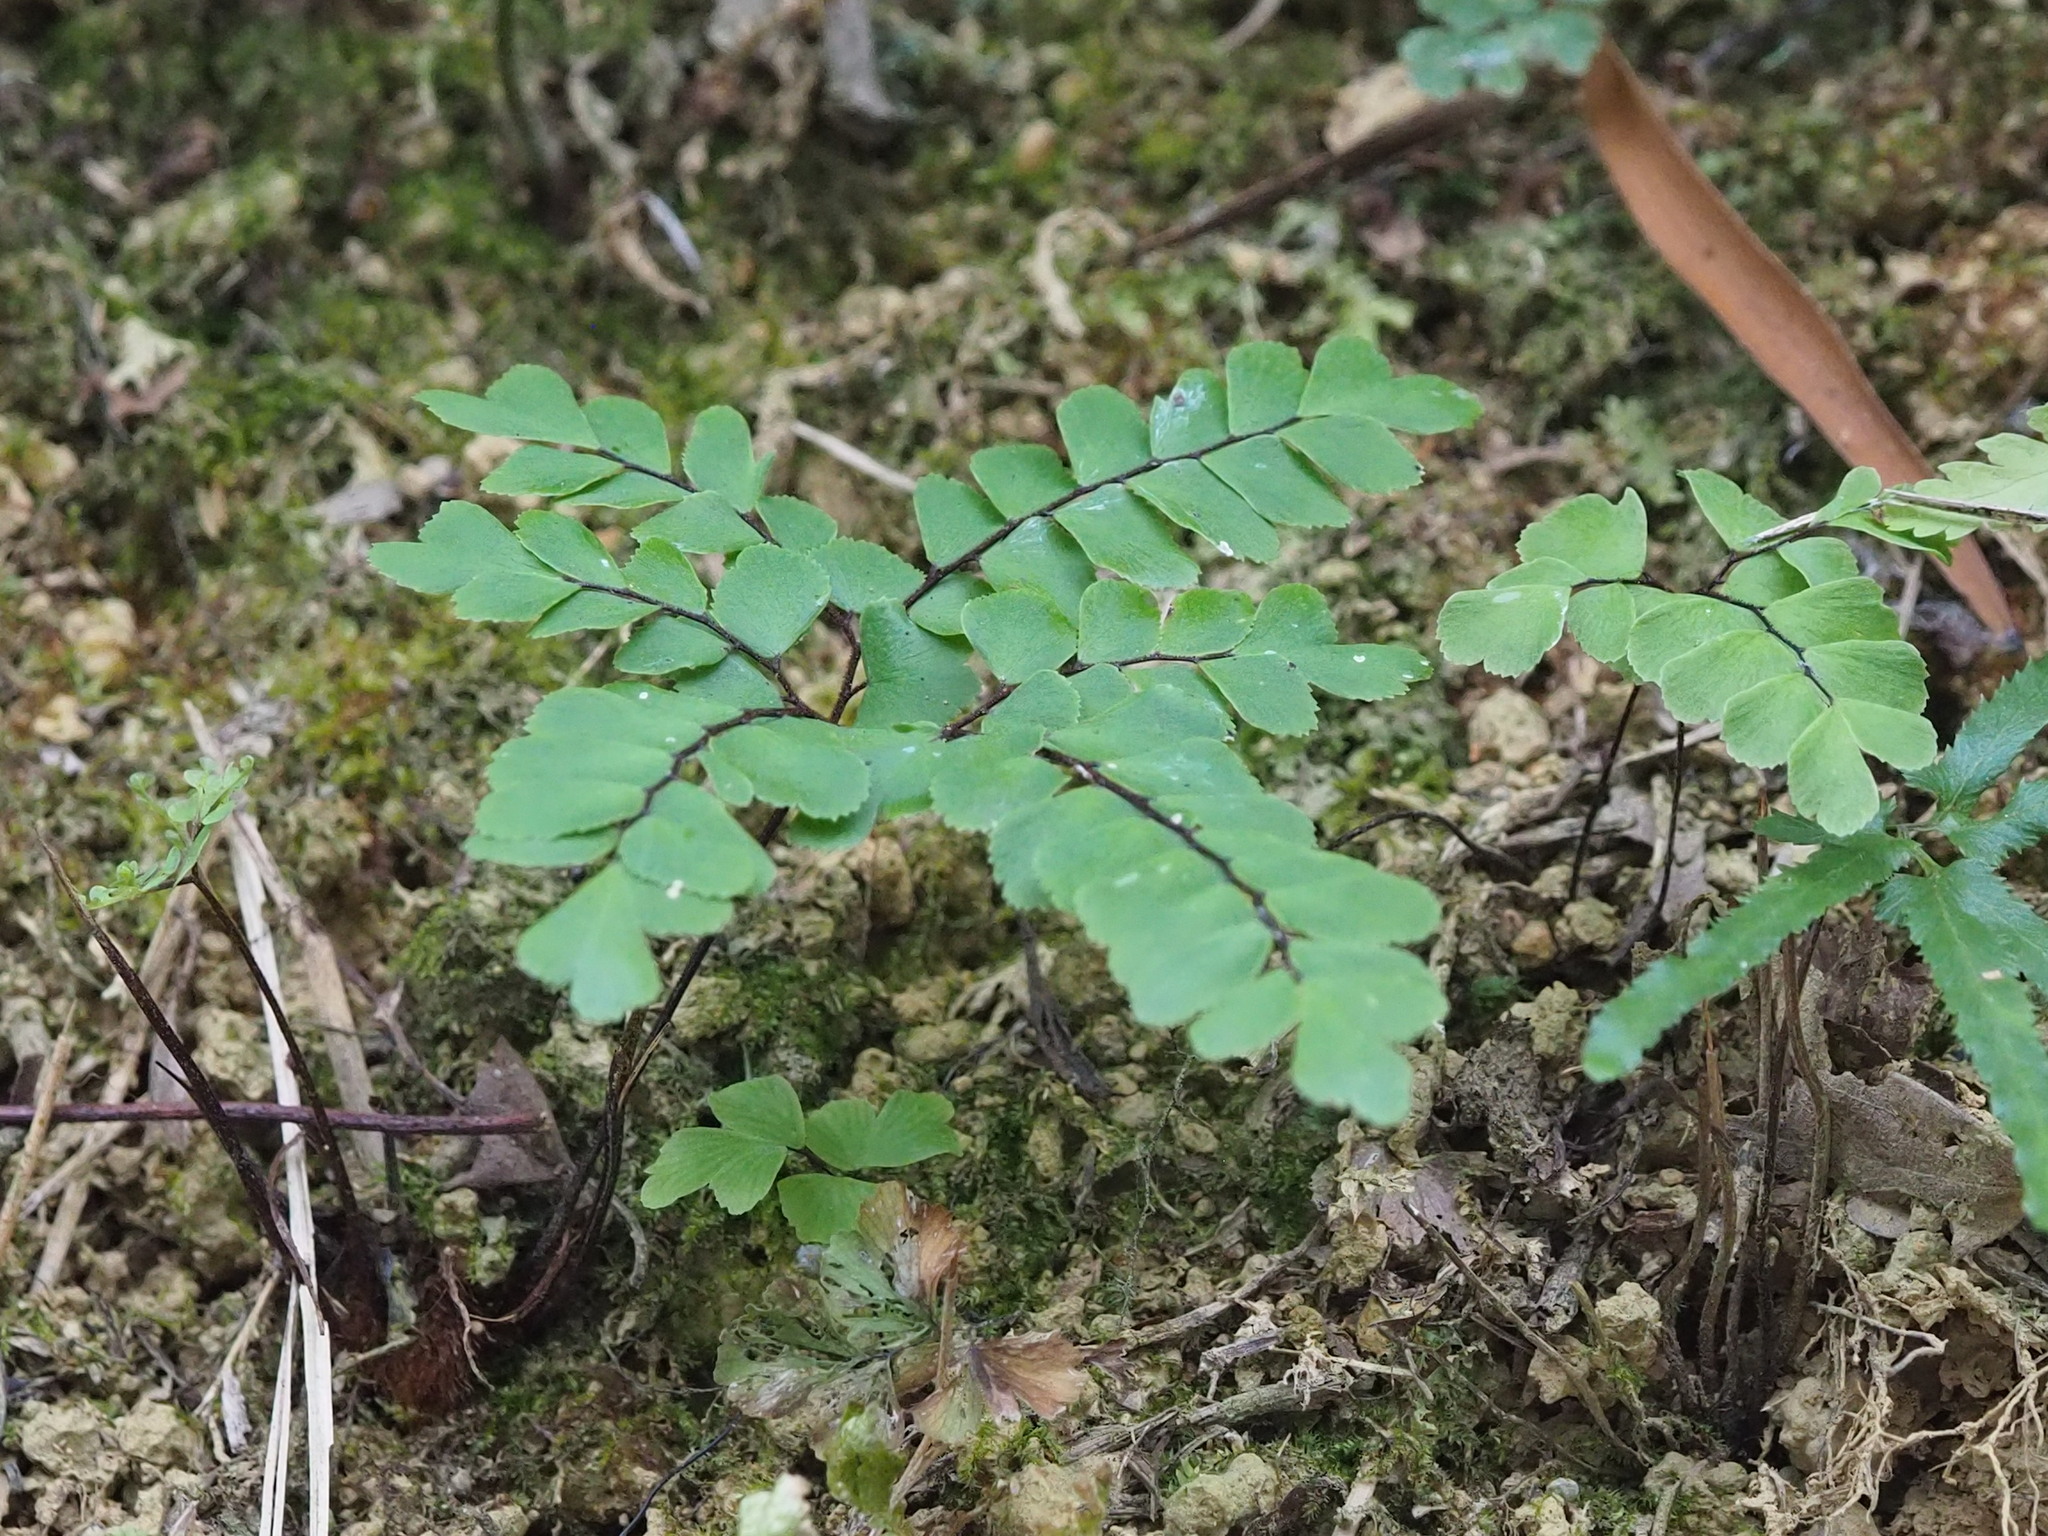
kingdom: Plantae
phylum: Tracheophyta
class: Polypodiopsida
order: Polypodiales
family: Pteridaceae
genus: Adiantum
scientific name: Adiantum flabellulatum
